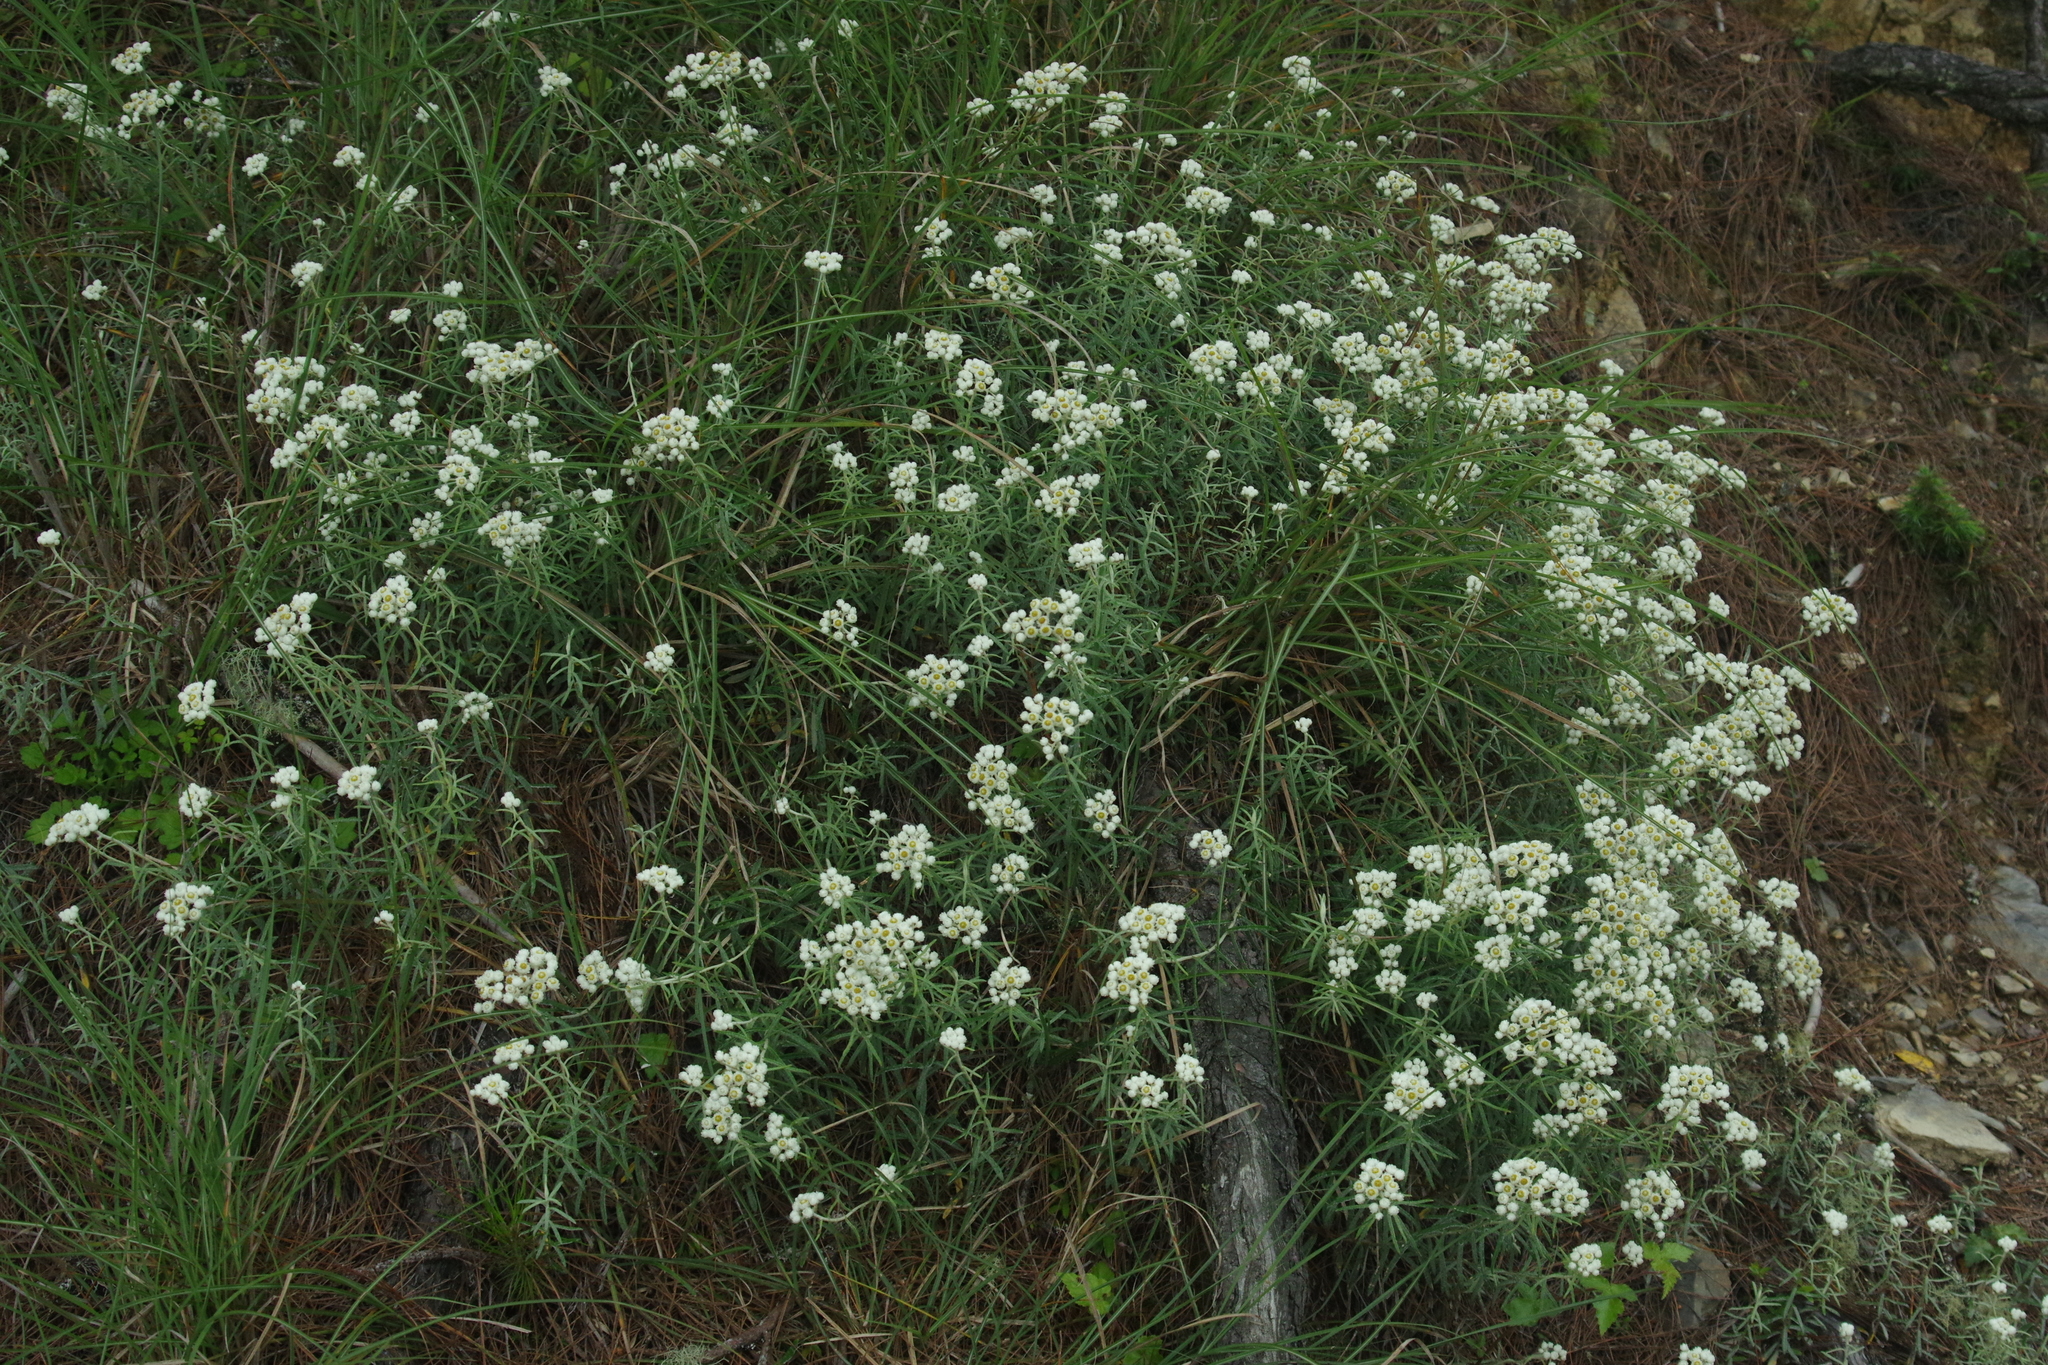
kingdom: Plantae
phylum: Tracheophyta
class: Magnoliopsida
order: Asterales
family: Asteraceae
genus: Anaphalis
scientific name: Anaphalis morrisonicola
